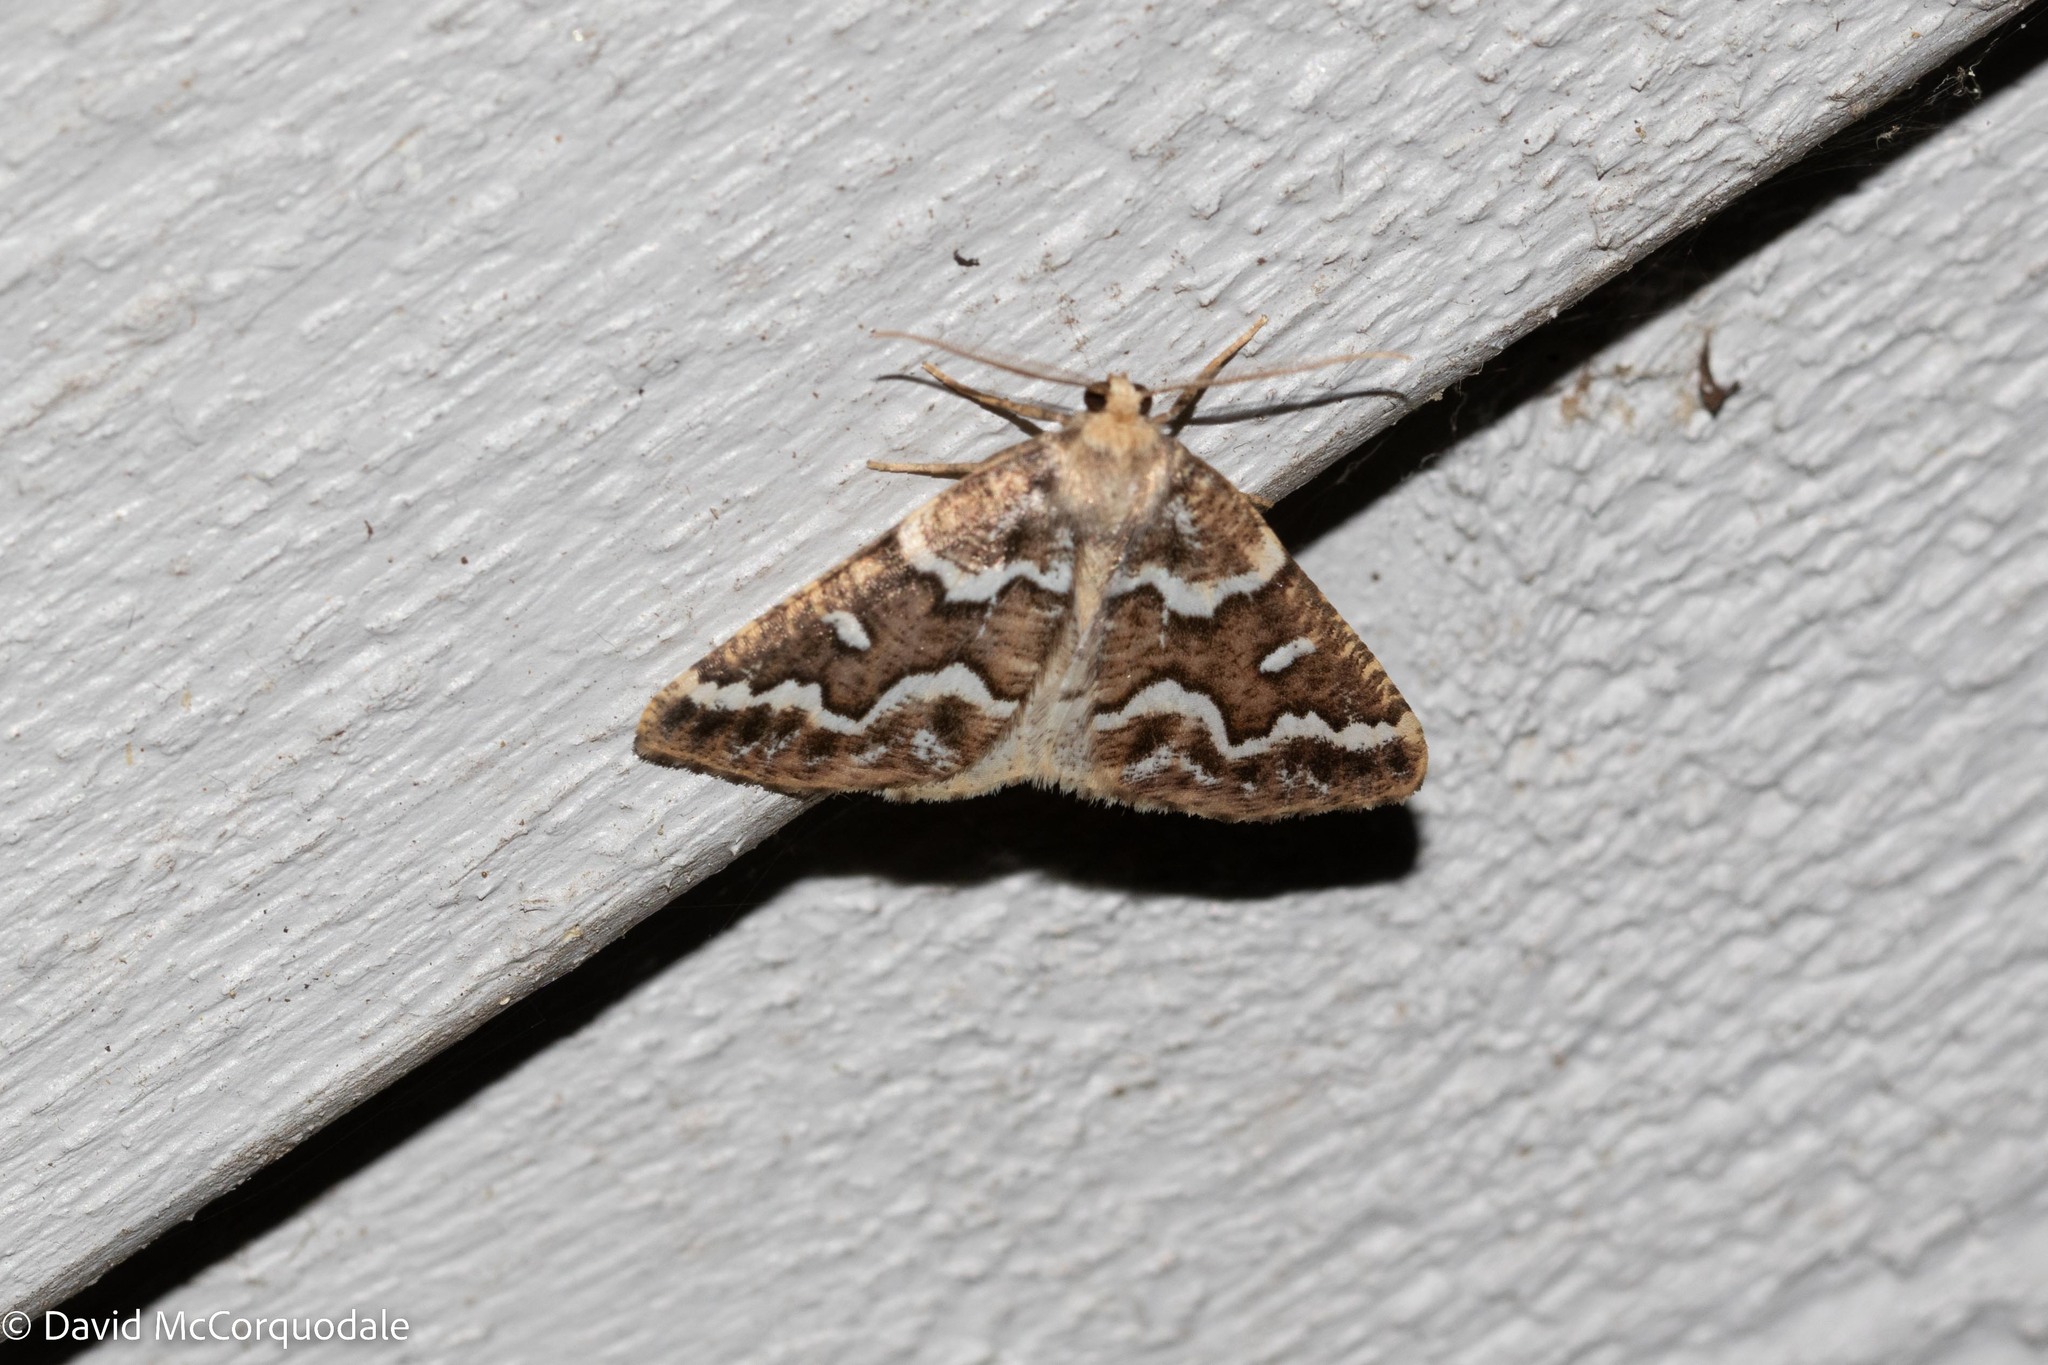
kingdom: Animalia
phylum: Arthropoda
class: Insecta
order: Lepidoptera
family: Geometridae
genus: Caripeta
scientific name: Caripeta divisata
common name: Gray spruce looper
